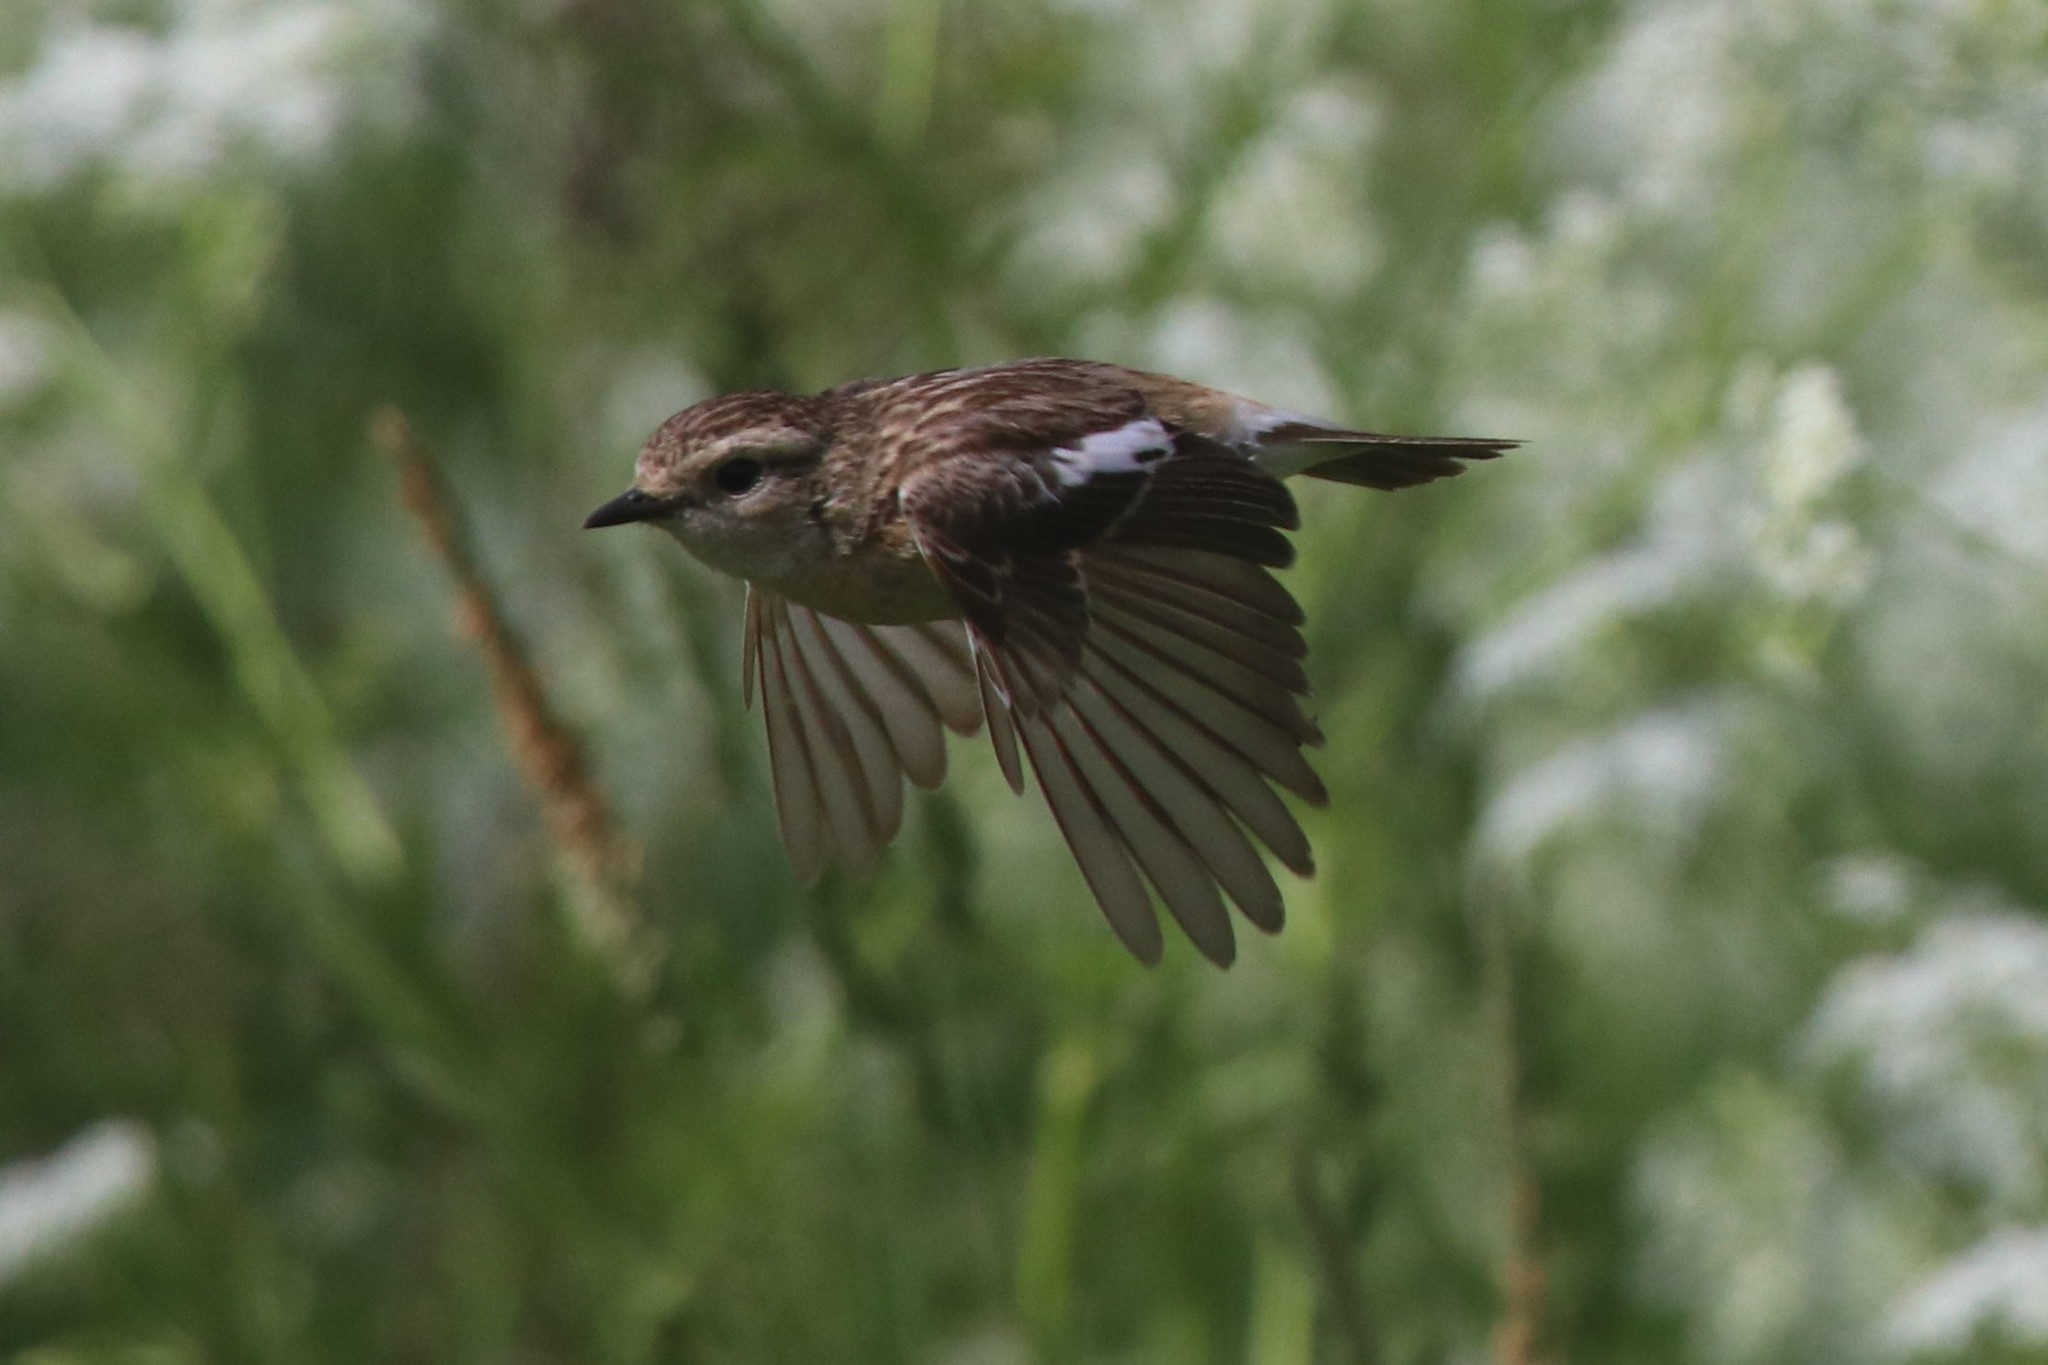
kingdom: Animalia
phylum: Chordata
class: Aves
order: Passeriformes
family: Muscicapidae
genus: Saxicola
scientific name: Saxicola maurus
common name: Siberian stonechat
